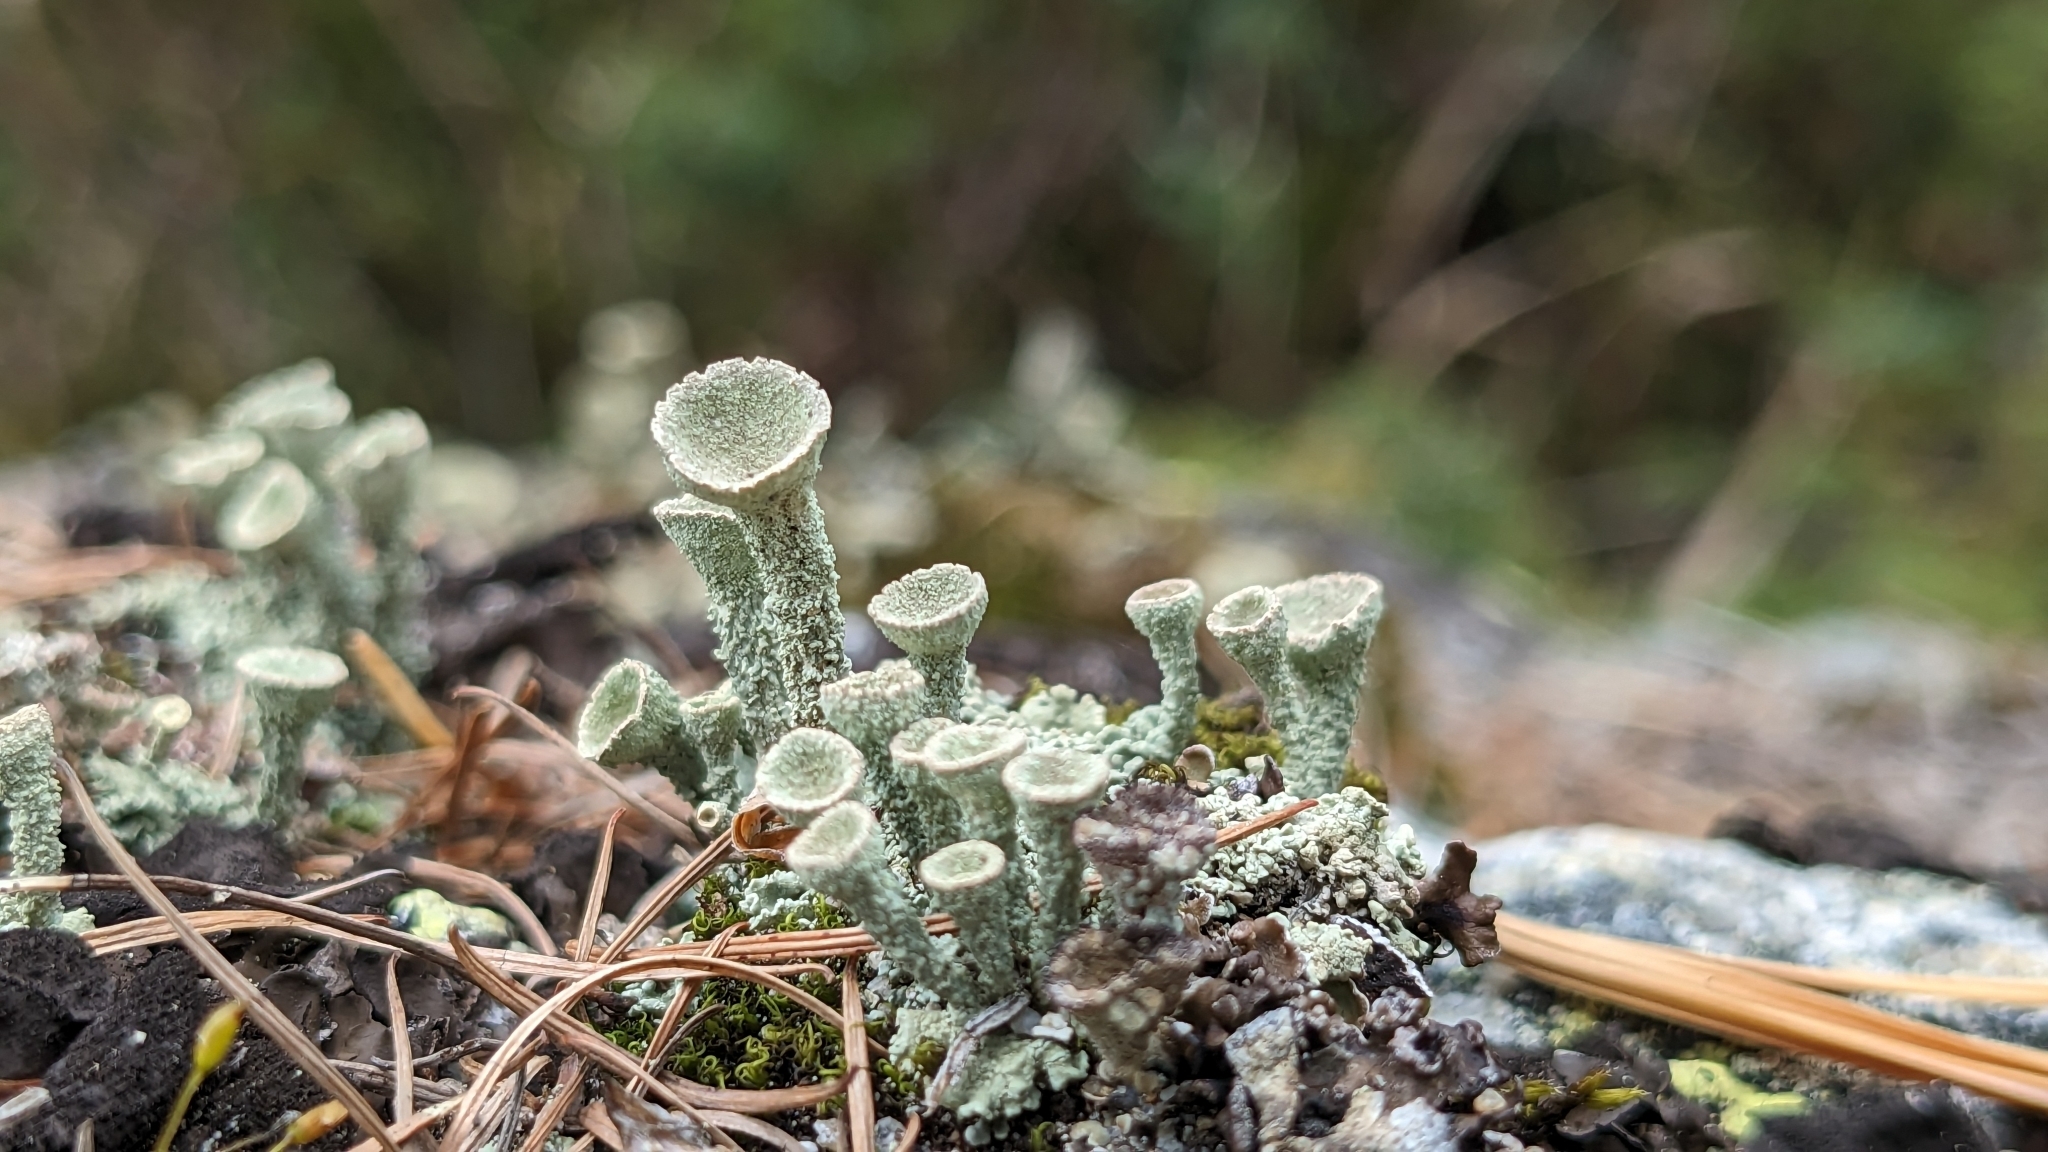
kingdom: Fungi
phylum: Ascomycota
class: Lecanoromycetes
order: Lecanorales
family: Cladoniaceae
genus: Cladonia
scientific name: Cladonia fimbriata
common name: Powdered trumpet lichen
